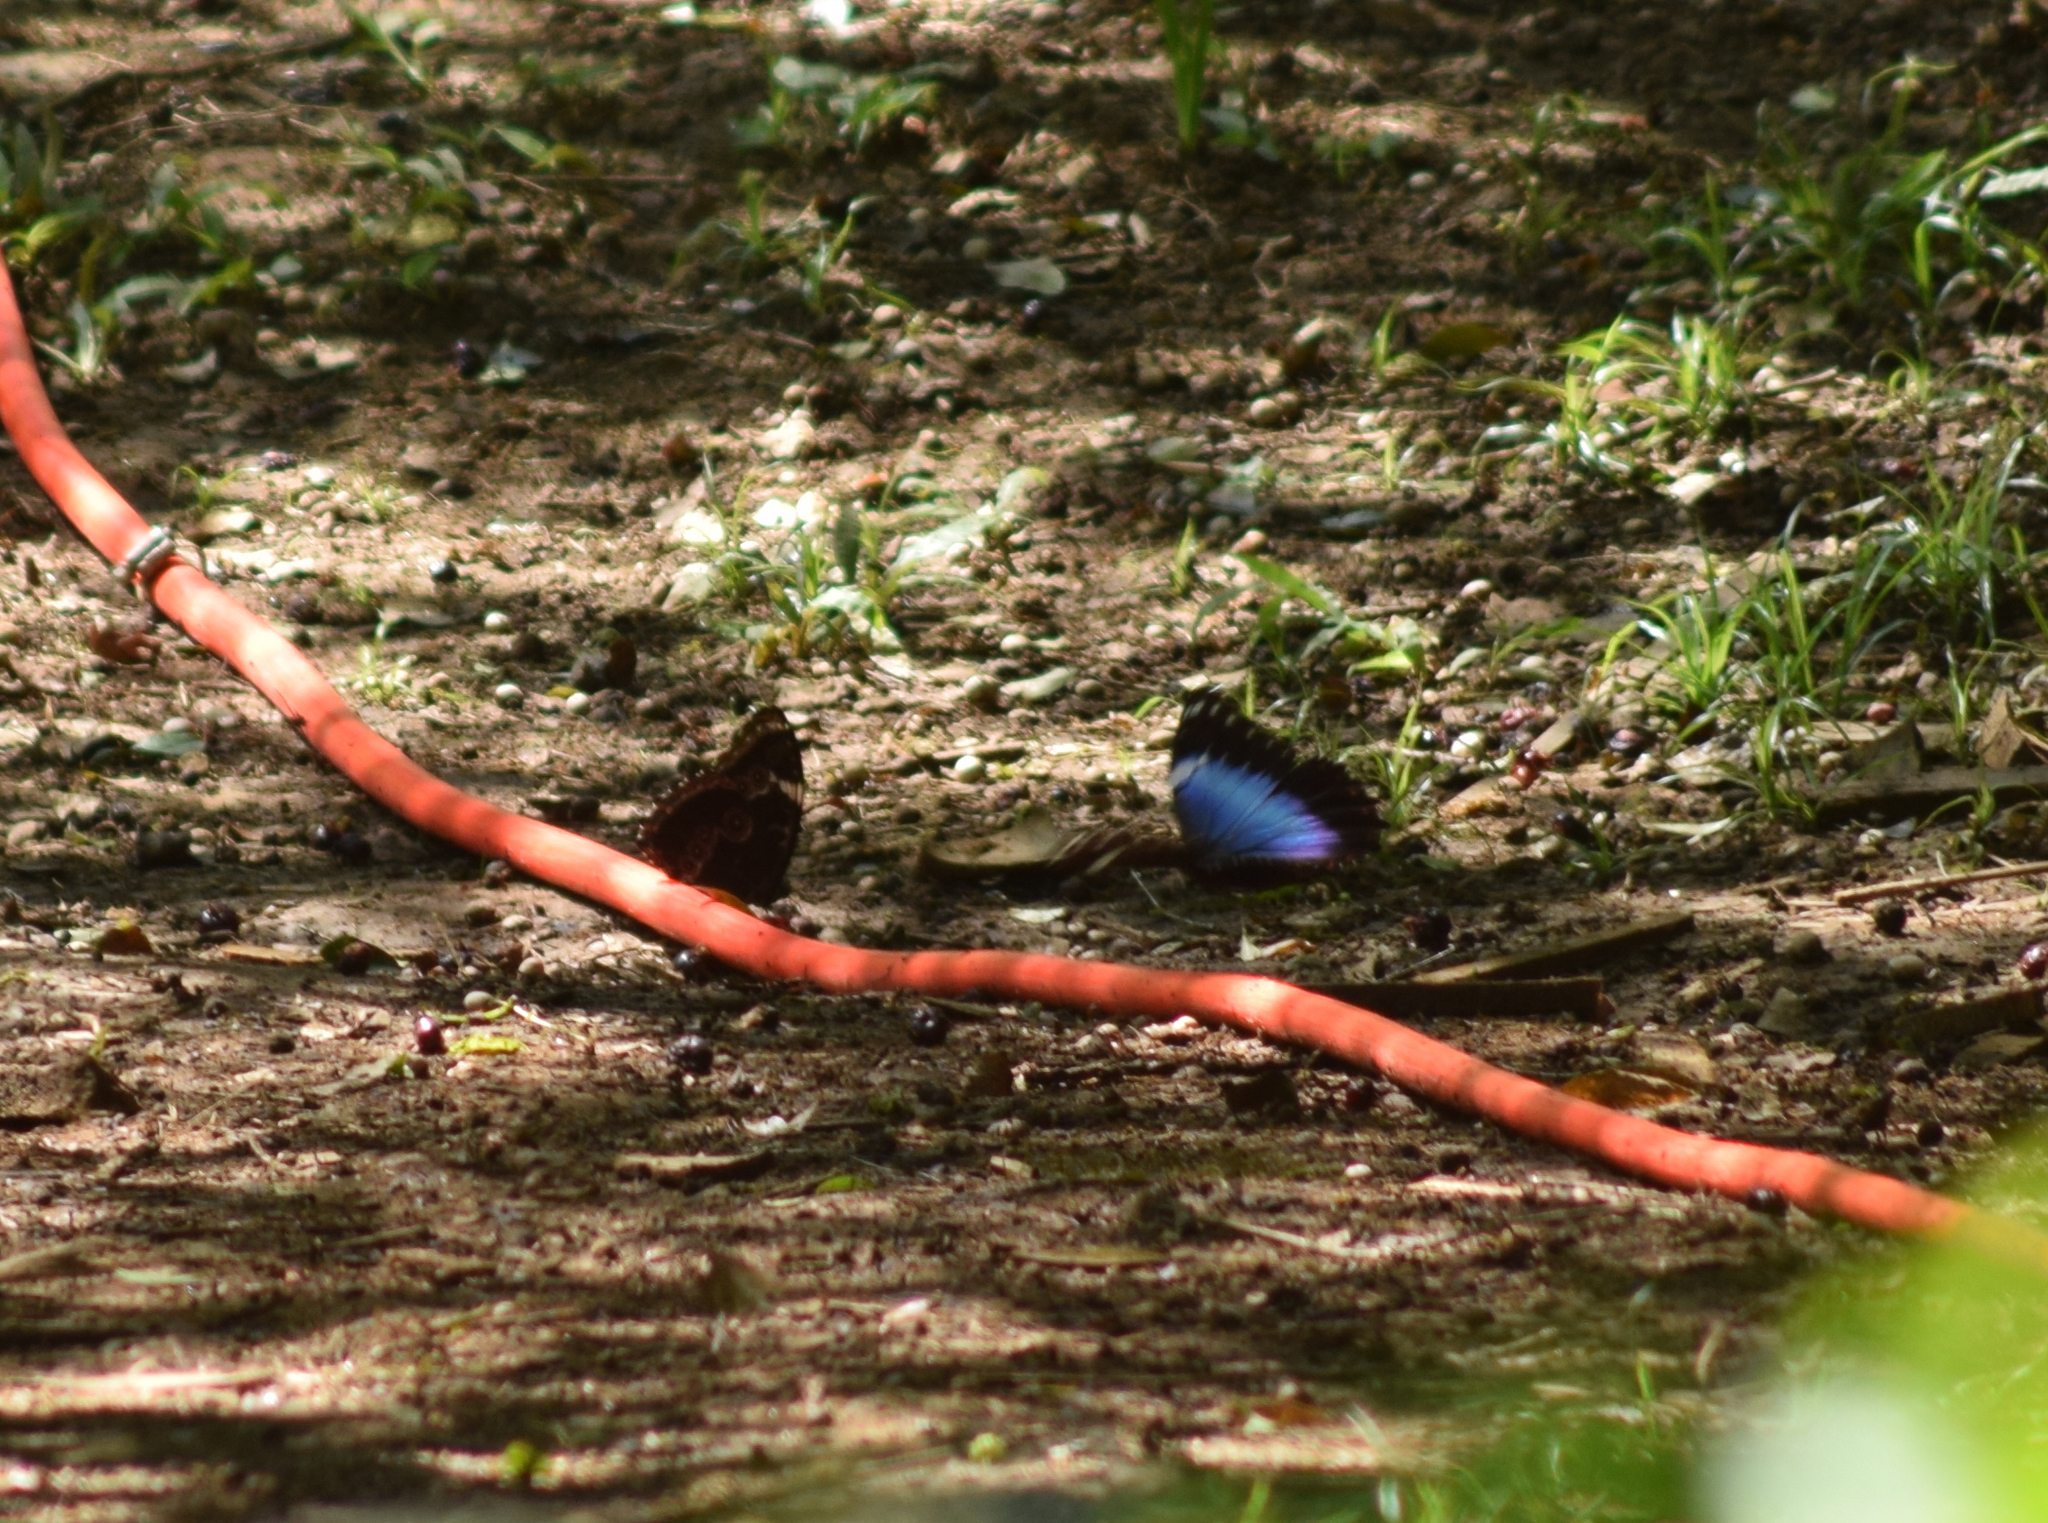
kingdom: Animalia
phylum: Arthropoda
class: Insecta
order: Lepidoptera
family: Nymphalidae
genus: Morpho
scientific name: Morpho helenor
